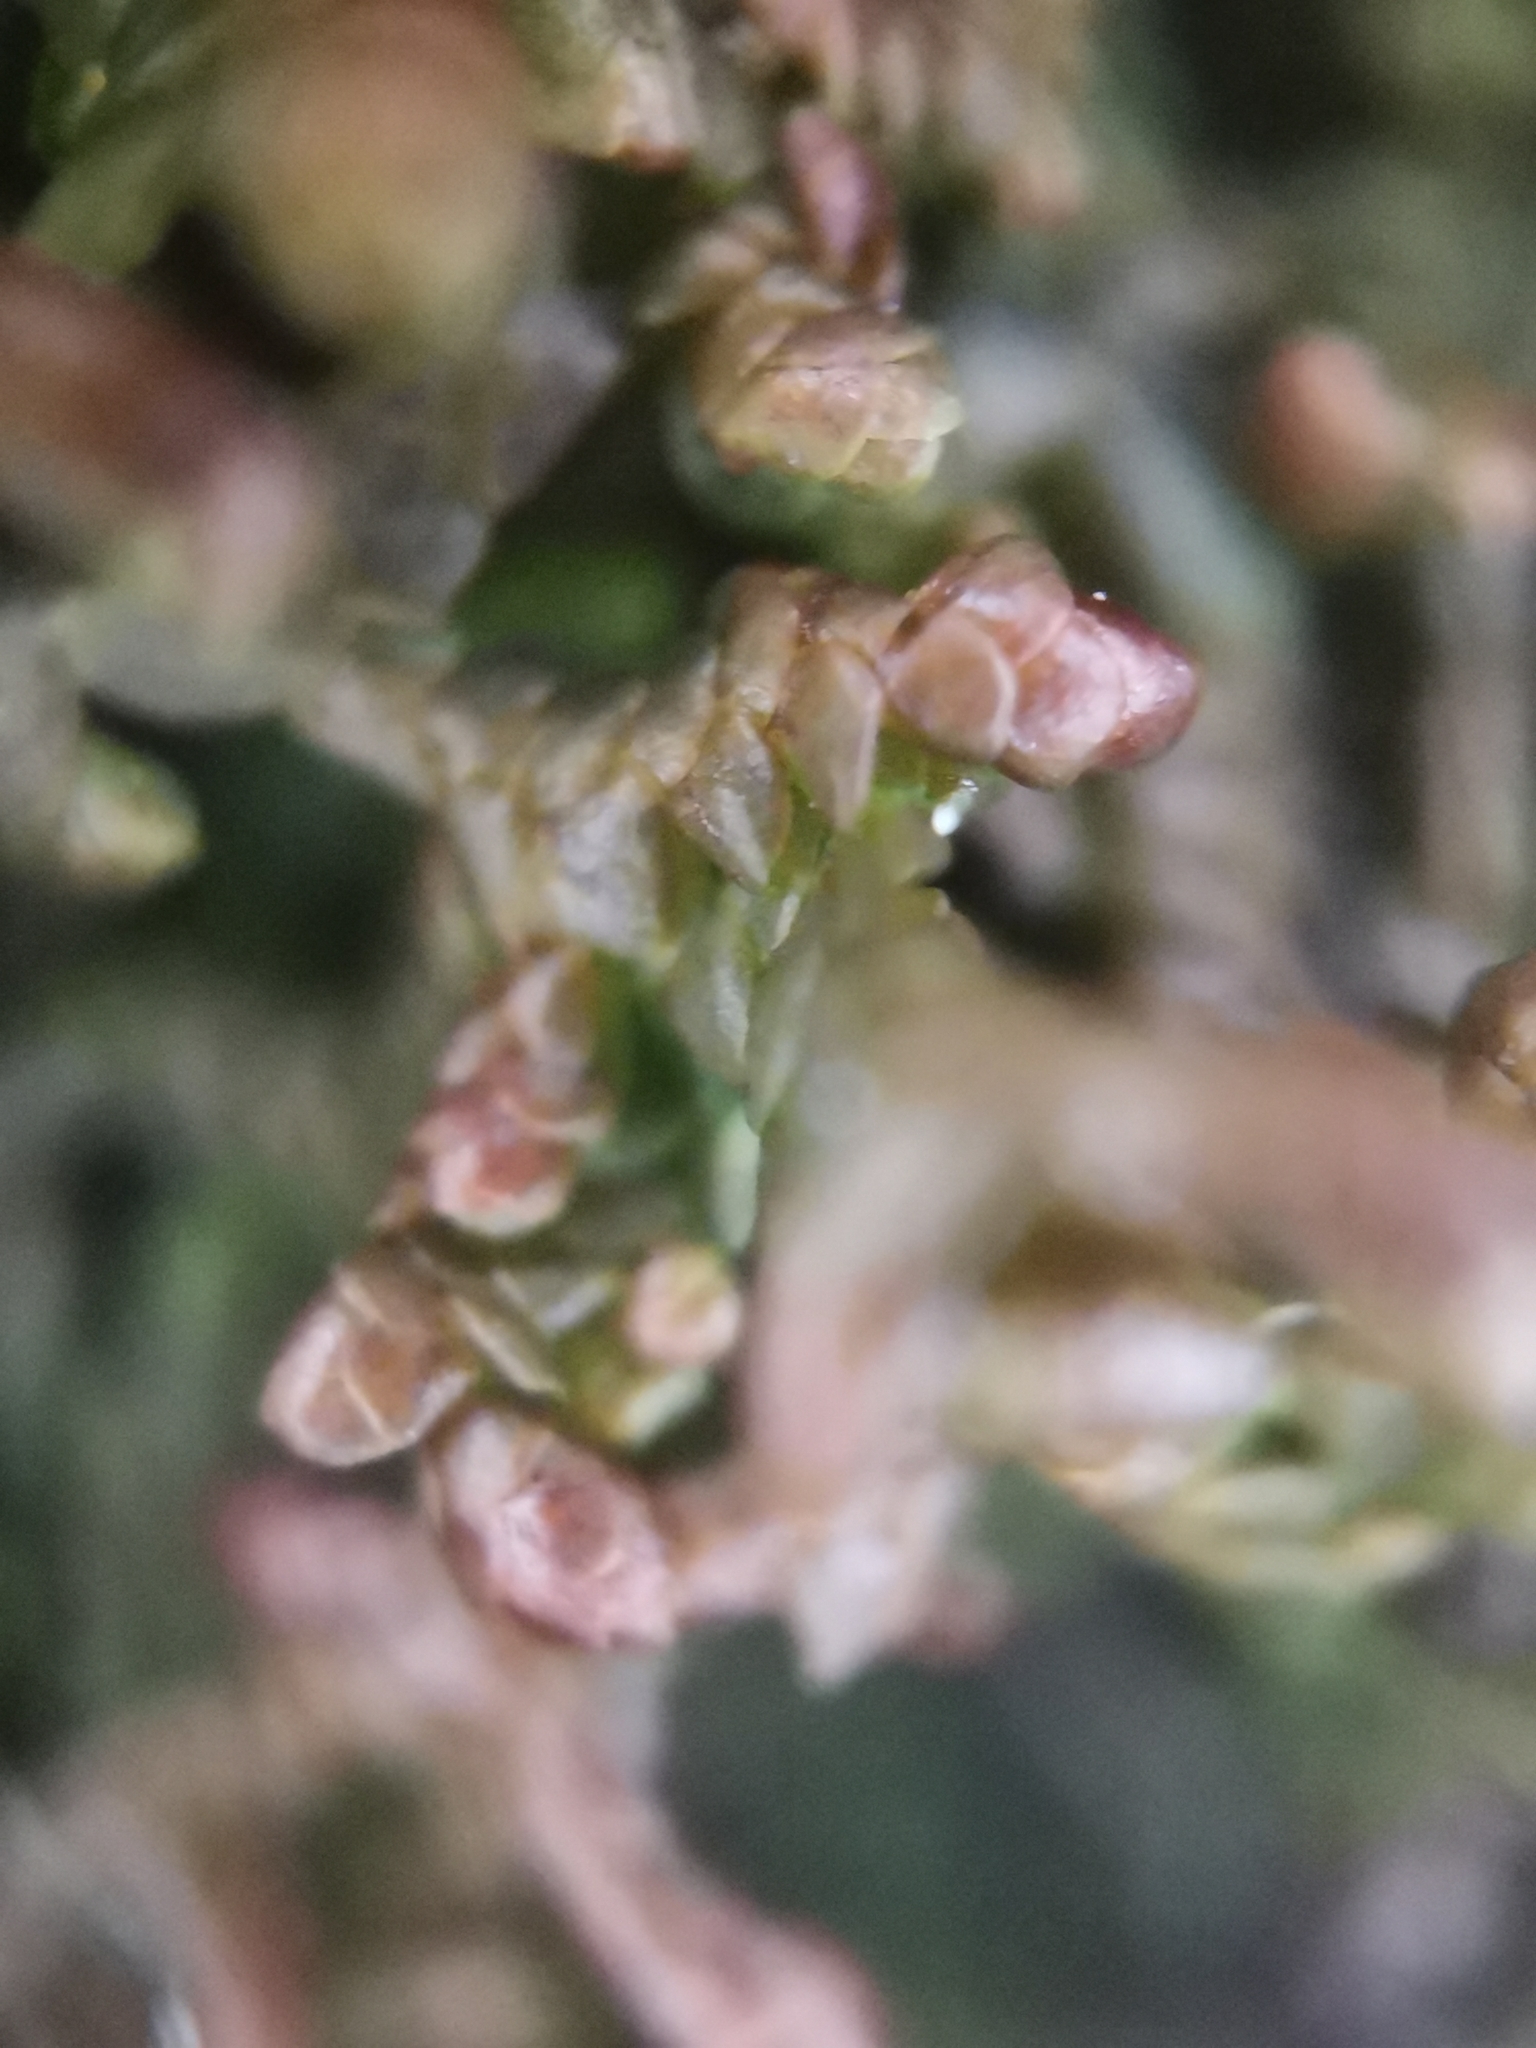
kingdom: Plantae
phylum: Marchantiophyta
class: Jungermanniopsida
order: Porellales
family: Frullaniaceae
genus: Frullania
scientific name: Frullania tamarisci
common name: Tamarisk scalewort
